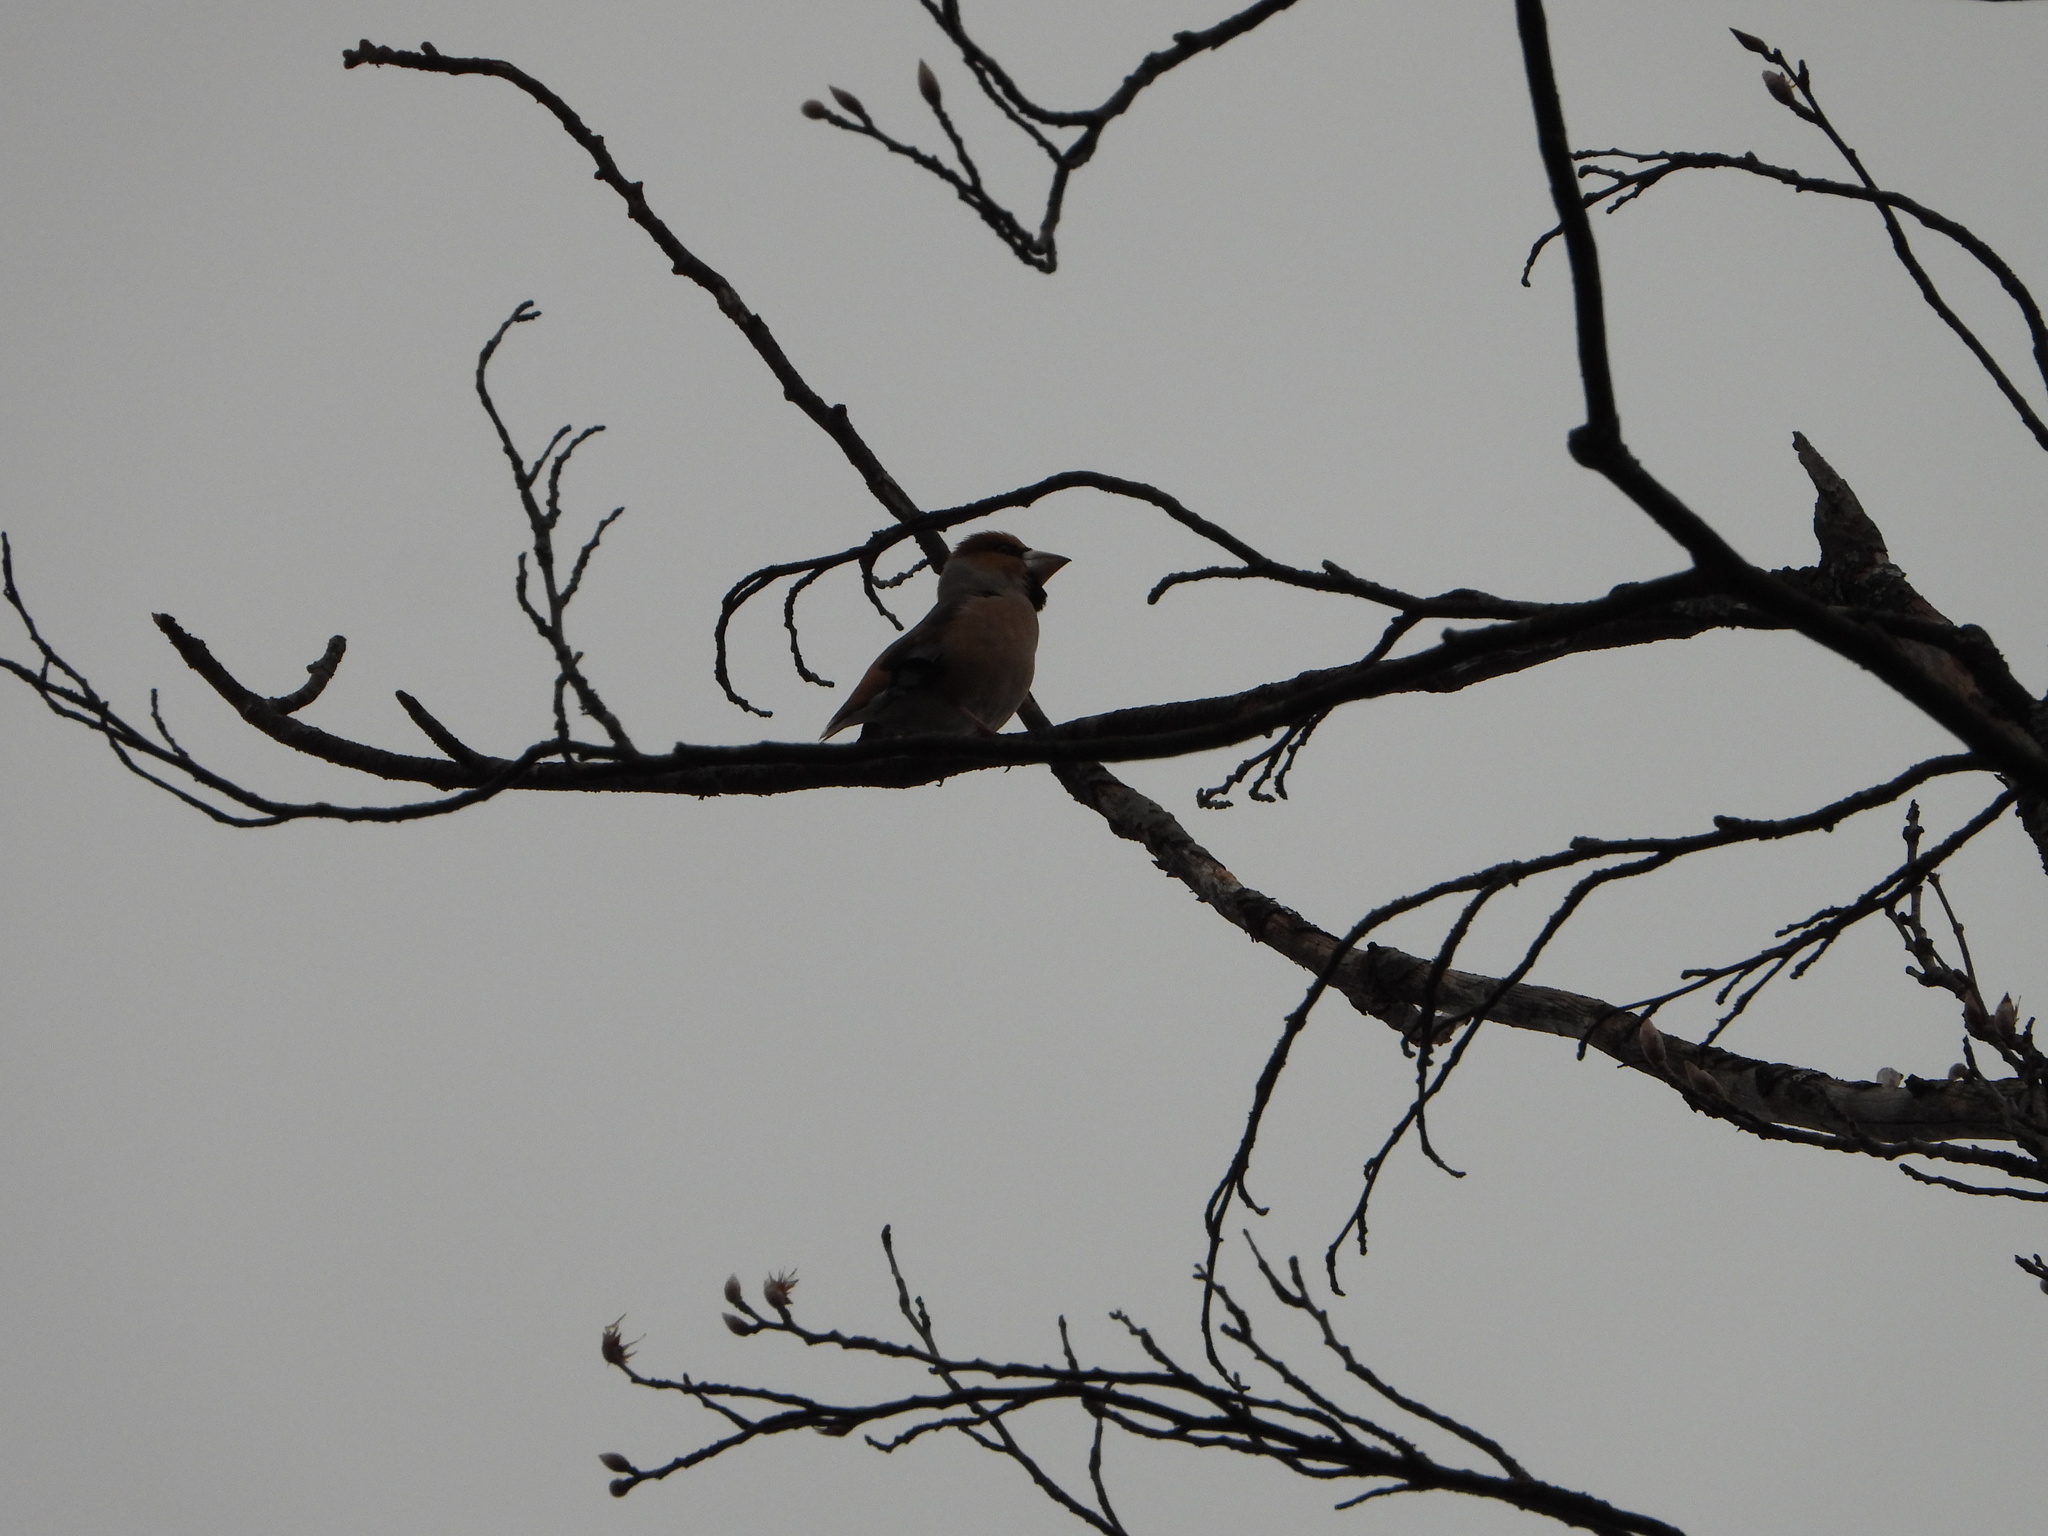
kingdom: Animalia
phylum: Chordata
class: Aves
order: Passeriformes
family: Fringillidae
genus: Coccothraustes
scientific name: Coccothraustes coccothraustes
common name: Hawfinch
